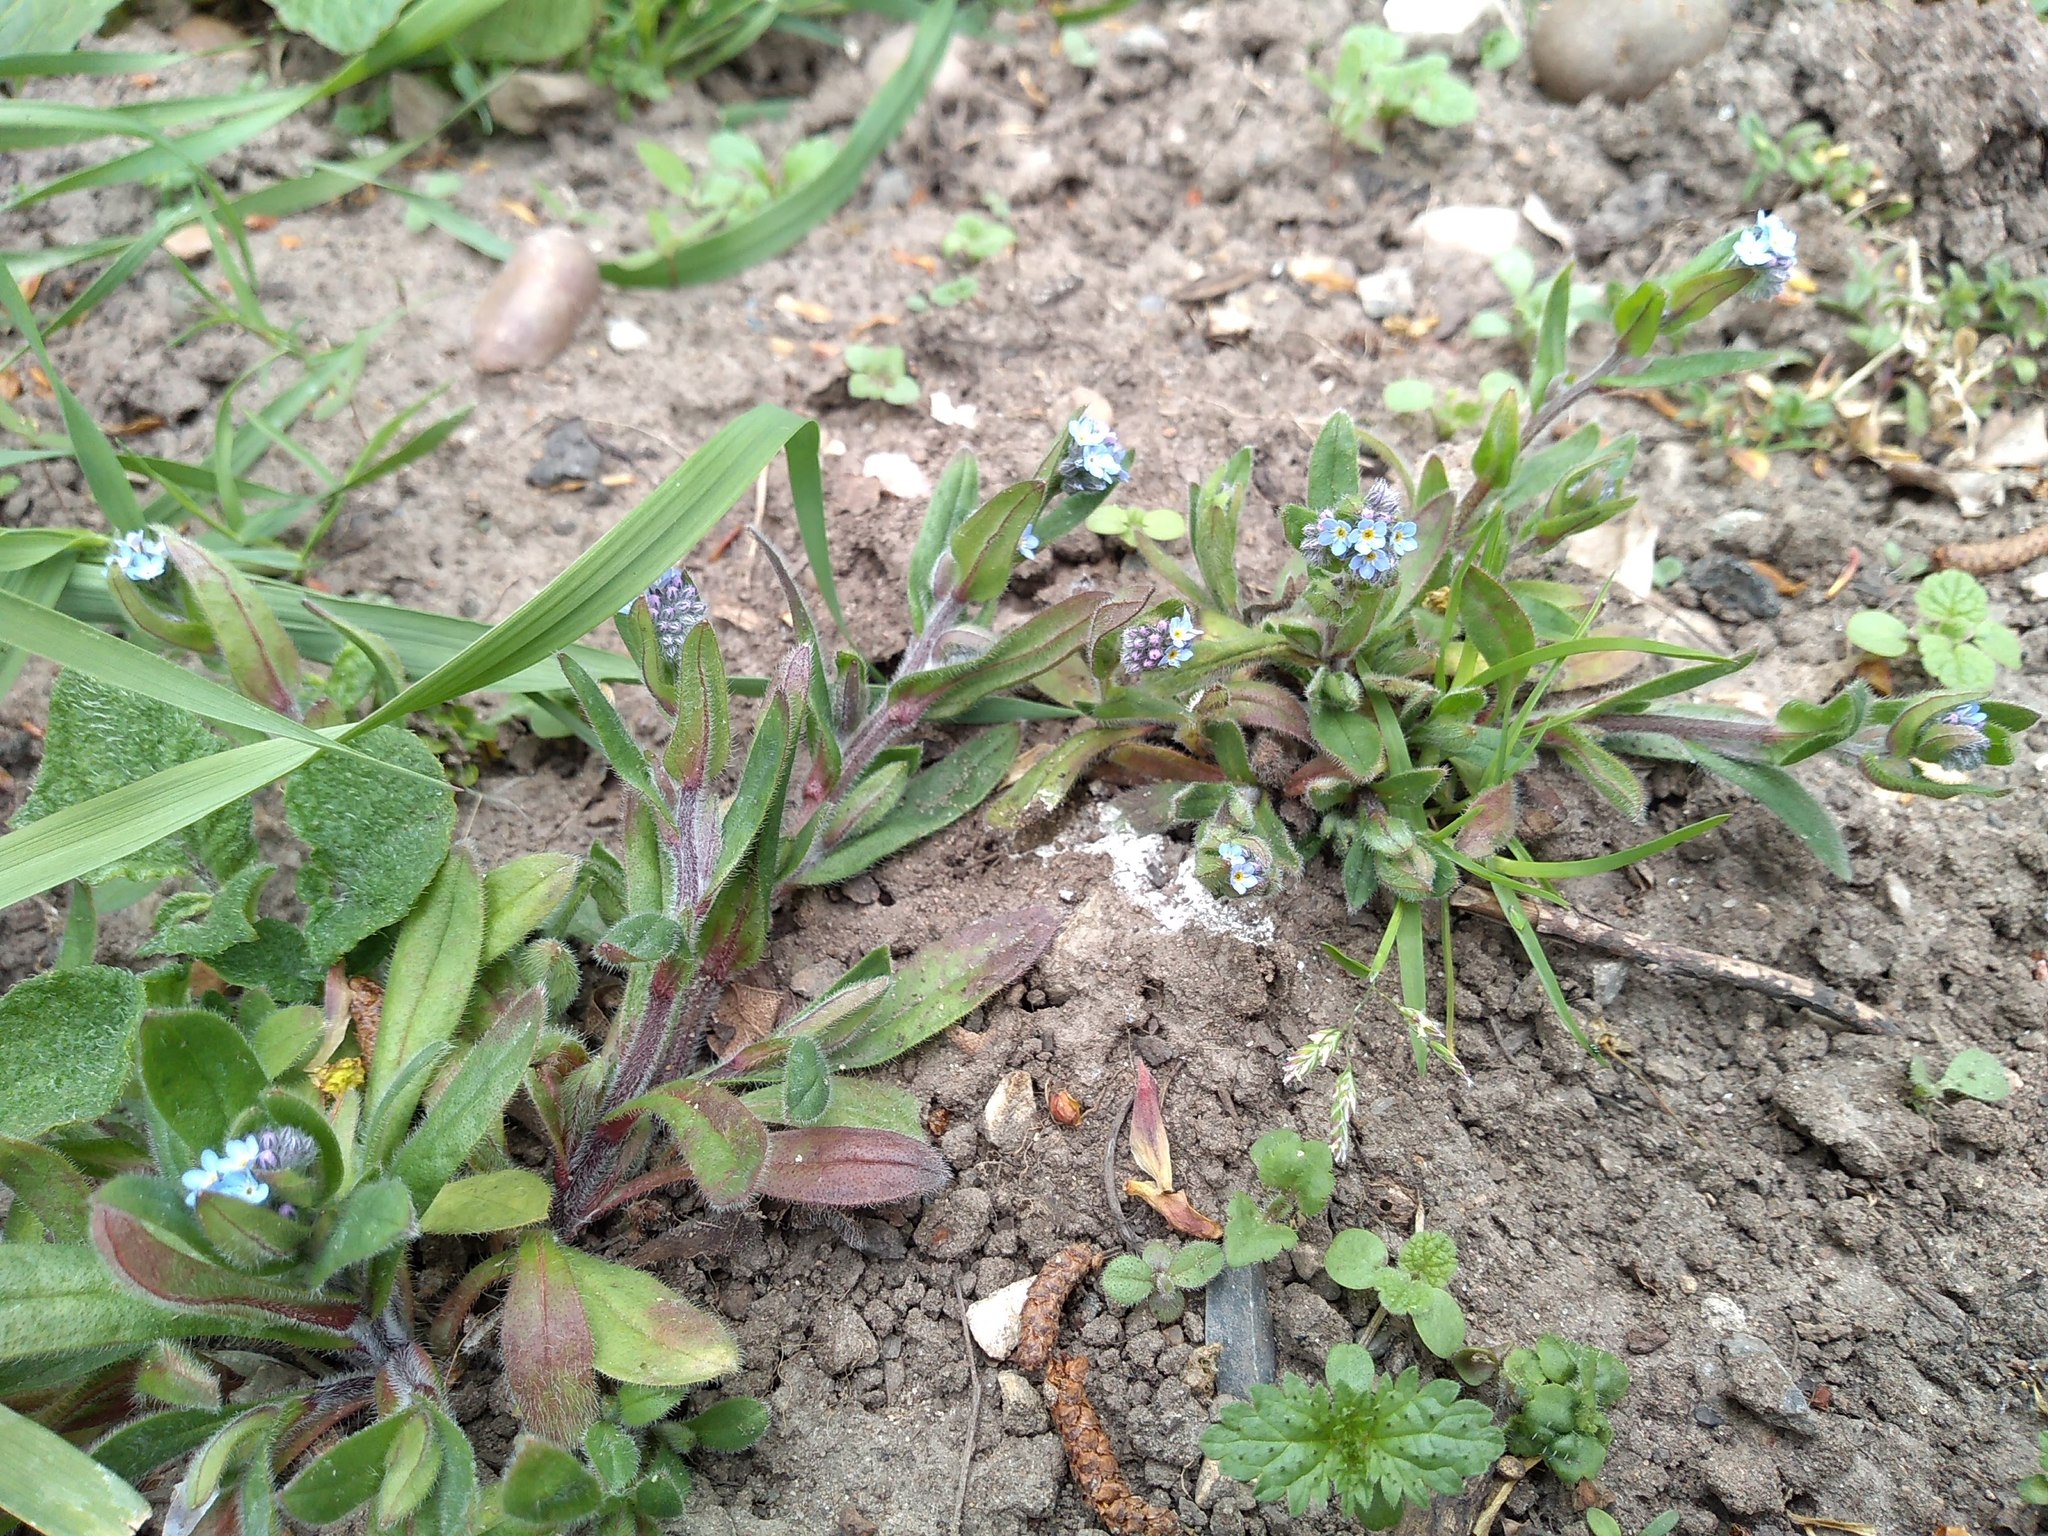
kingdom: Plantae
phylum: Tracheophyta
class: Magnoliopsida
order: Boraginales
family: Boraginaceae
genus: Myosotis
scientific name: Myosotis arvensis
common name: Field forget-me-not
